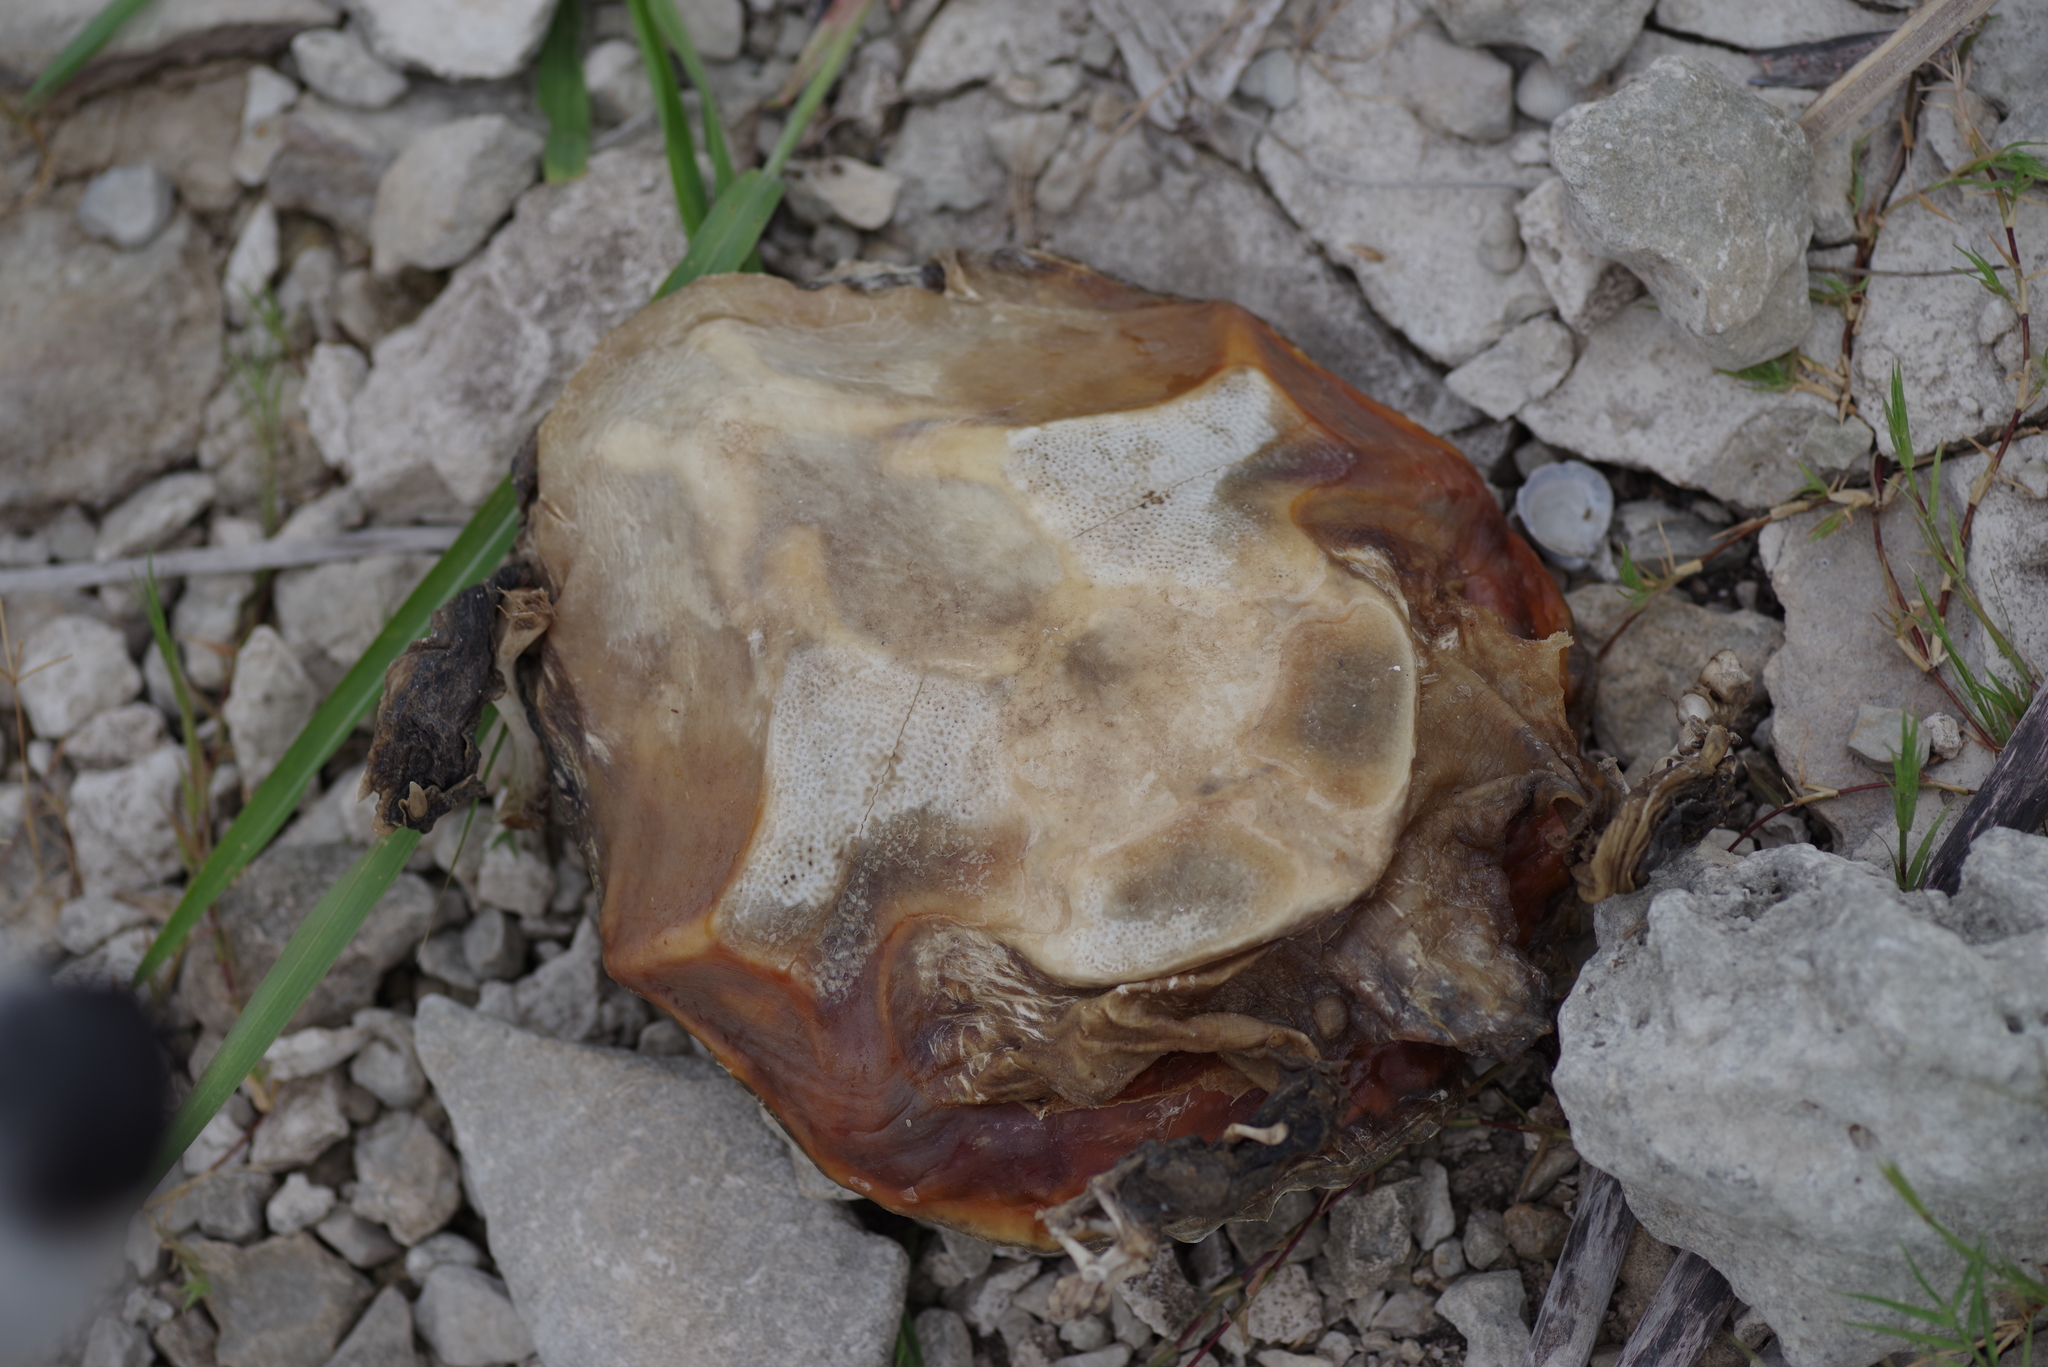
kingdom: Animalia
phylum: Chordata
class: Testudines
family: Trionychidae
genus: Apalone
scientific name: Apalone spinifera
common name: Spiny softshell turtle
